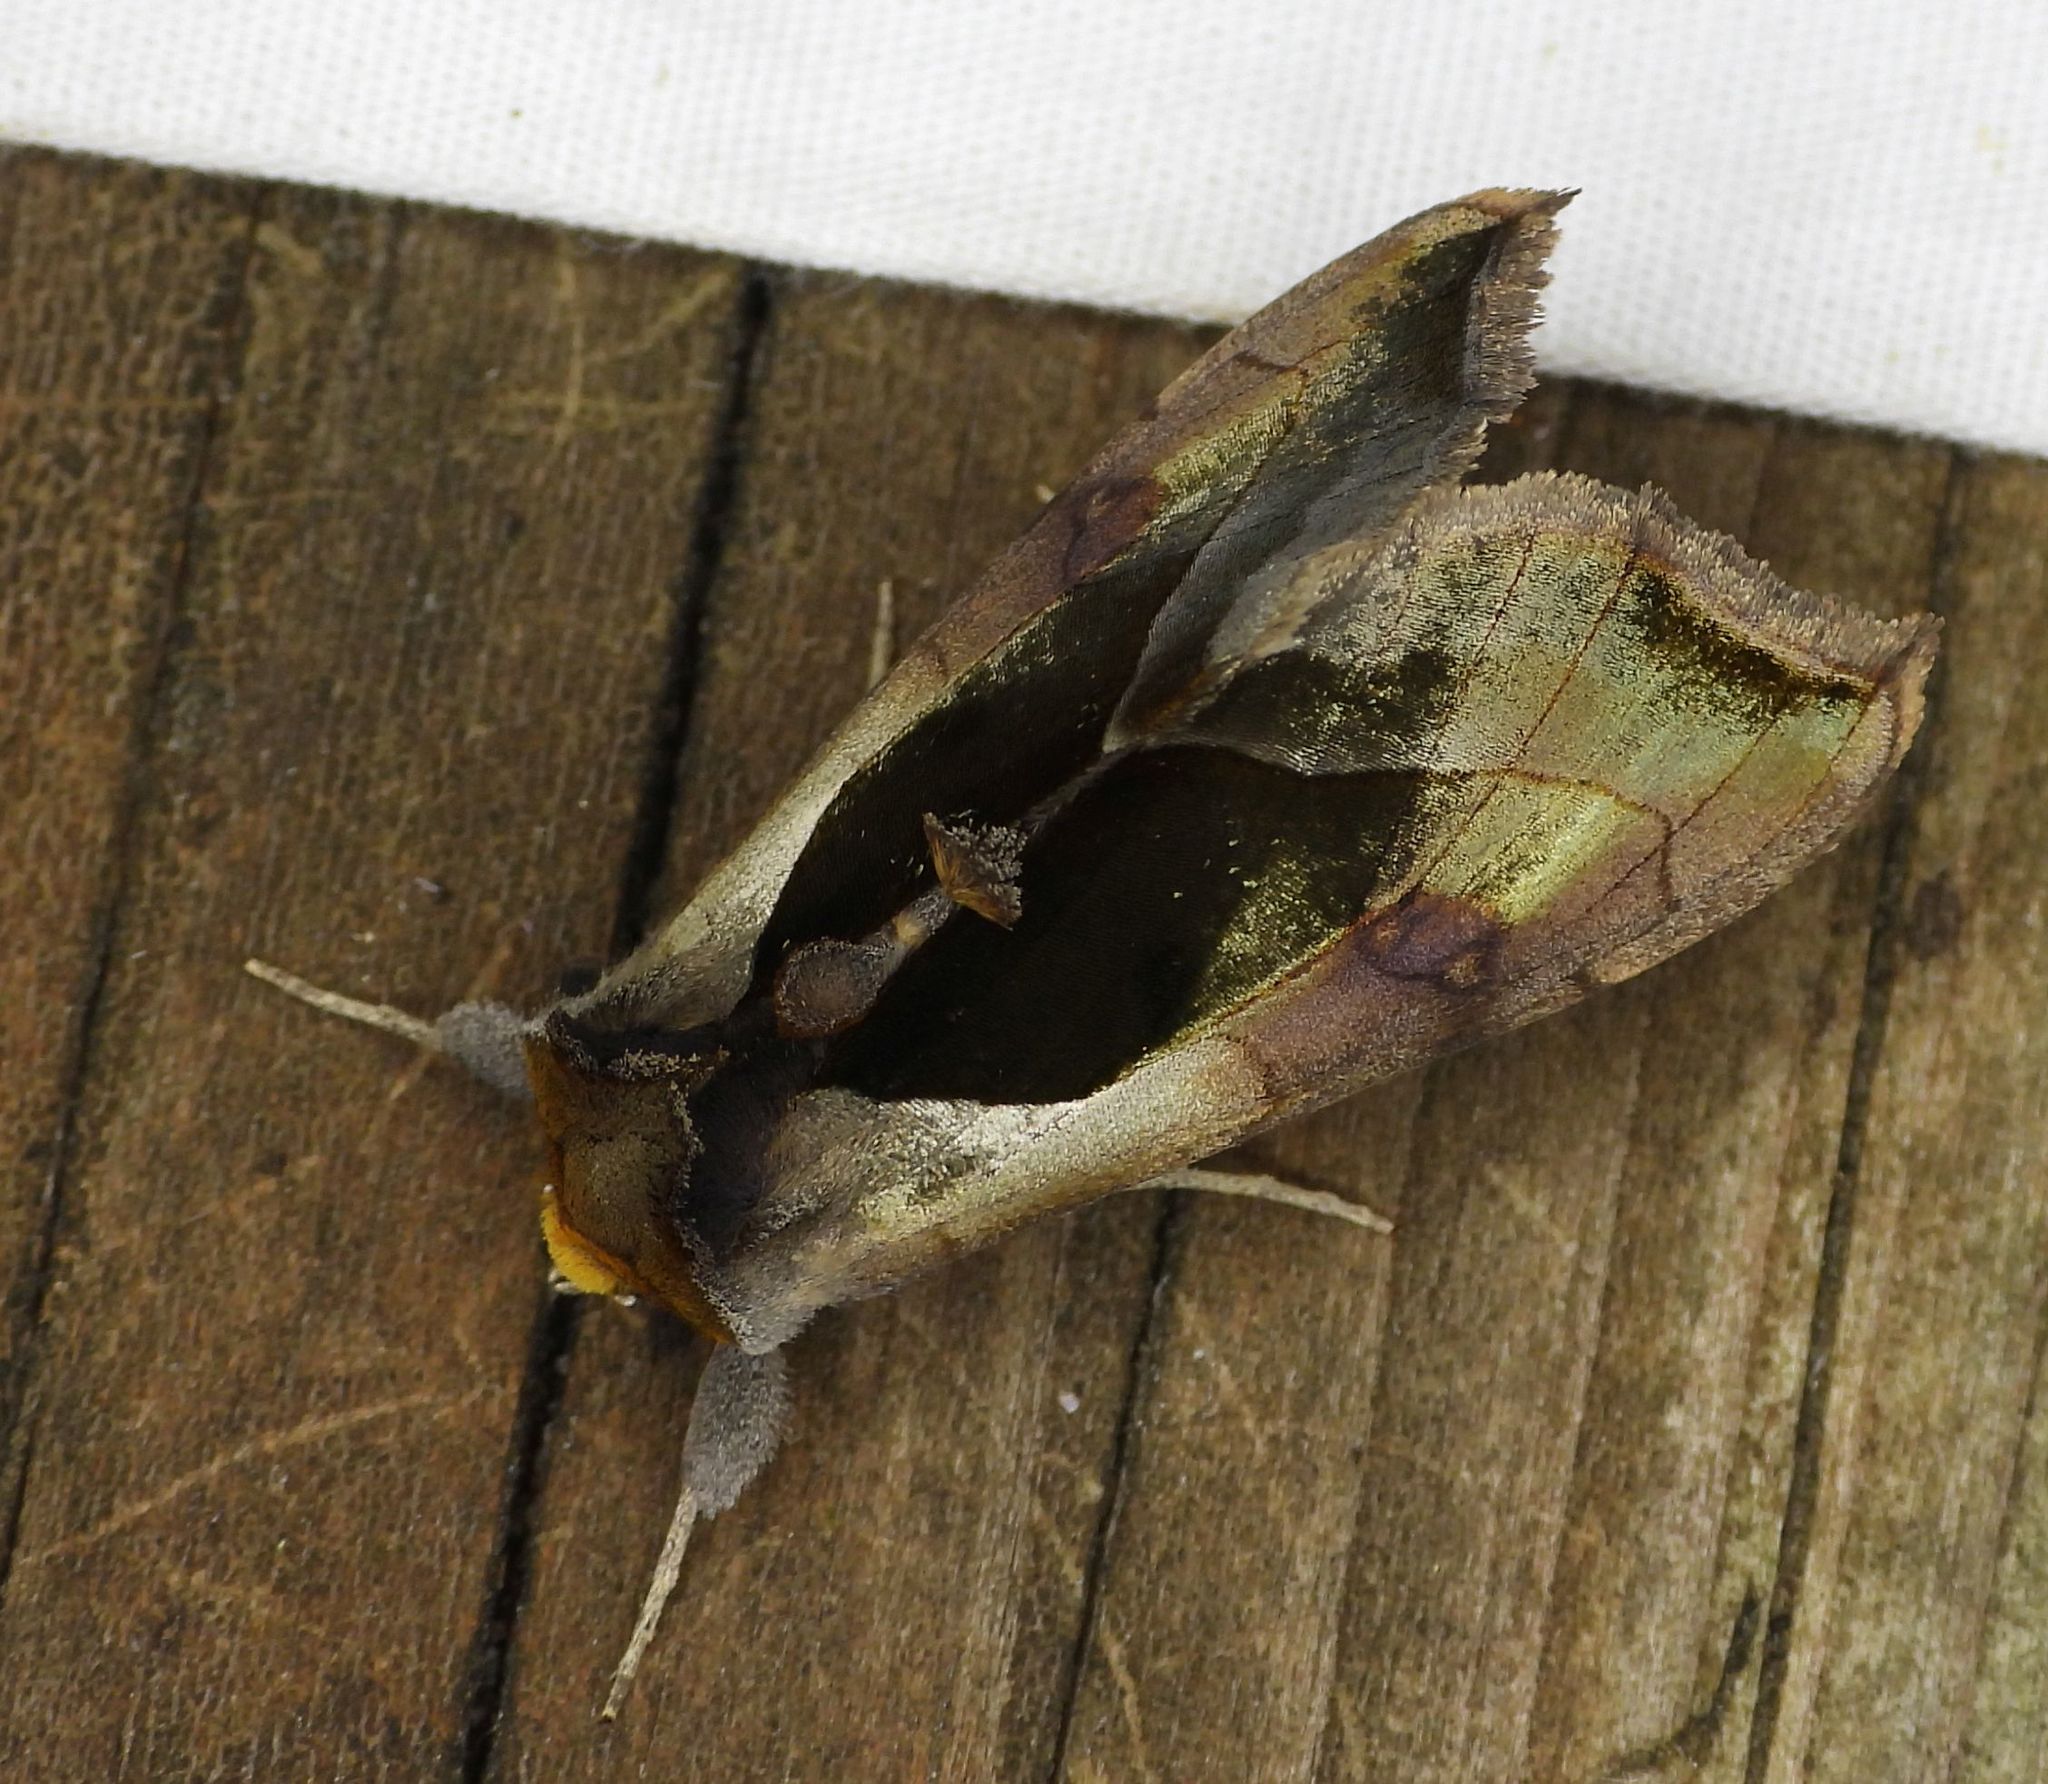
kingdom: Animalia
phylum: Arthropoda
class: Insecta
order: Lepidoptera
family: Noctuidae
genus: Diachrysia
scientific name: Diachrysia balluca
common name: Green-patched looper moth
